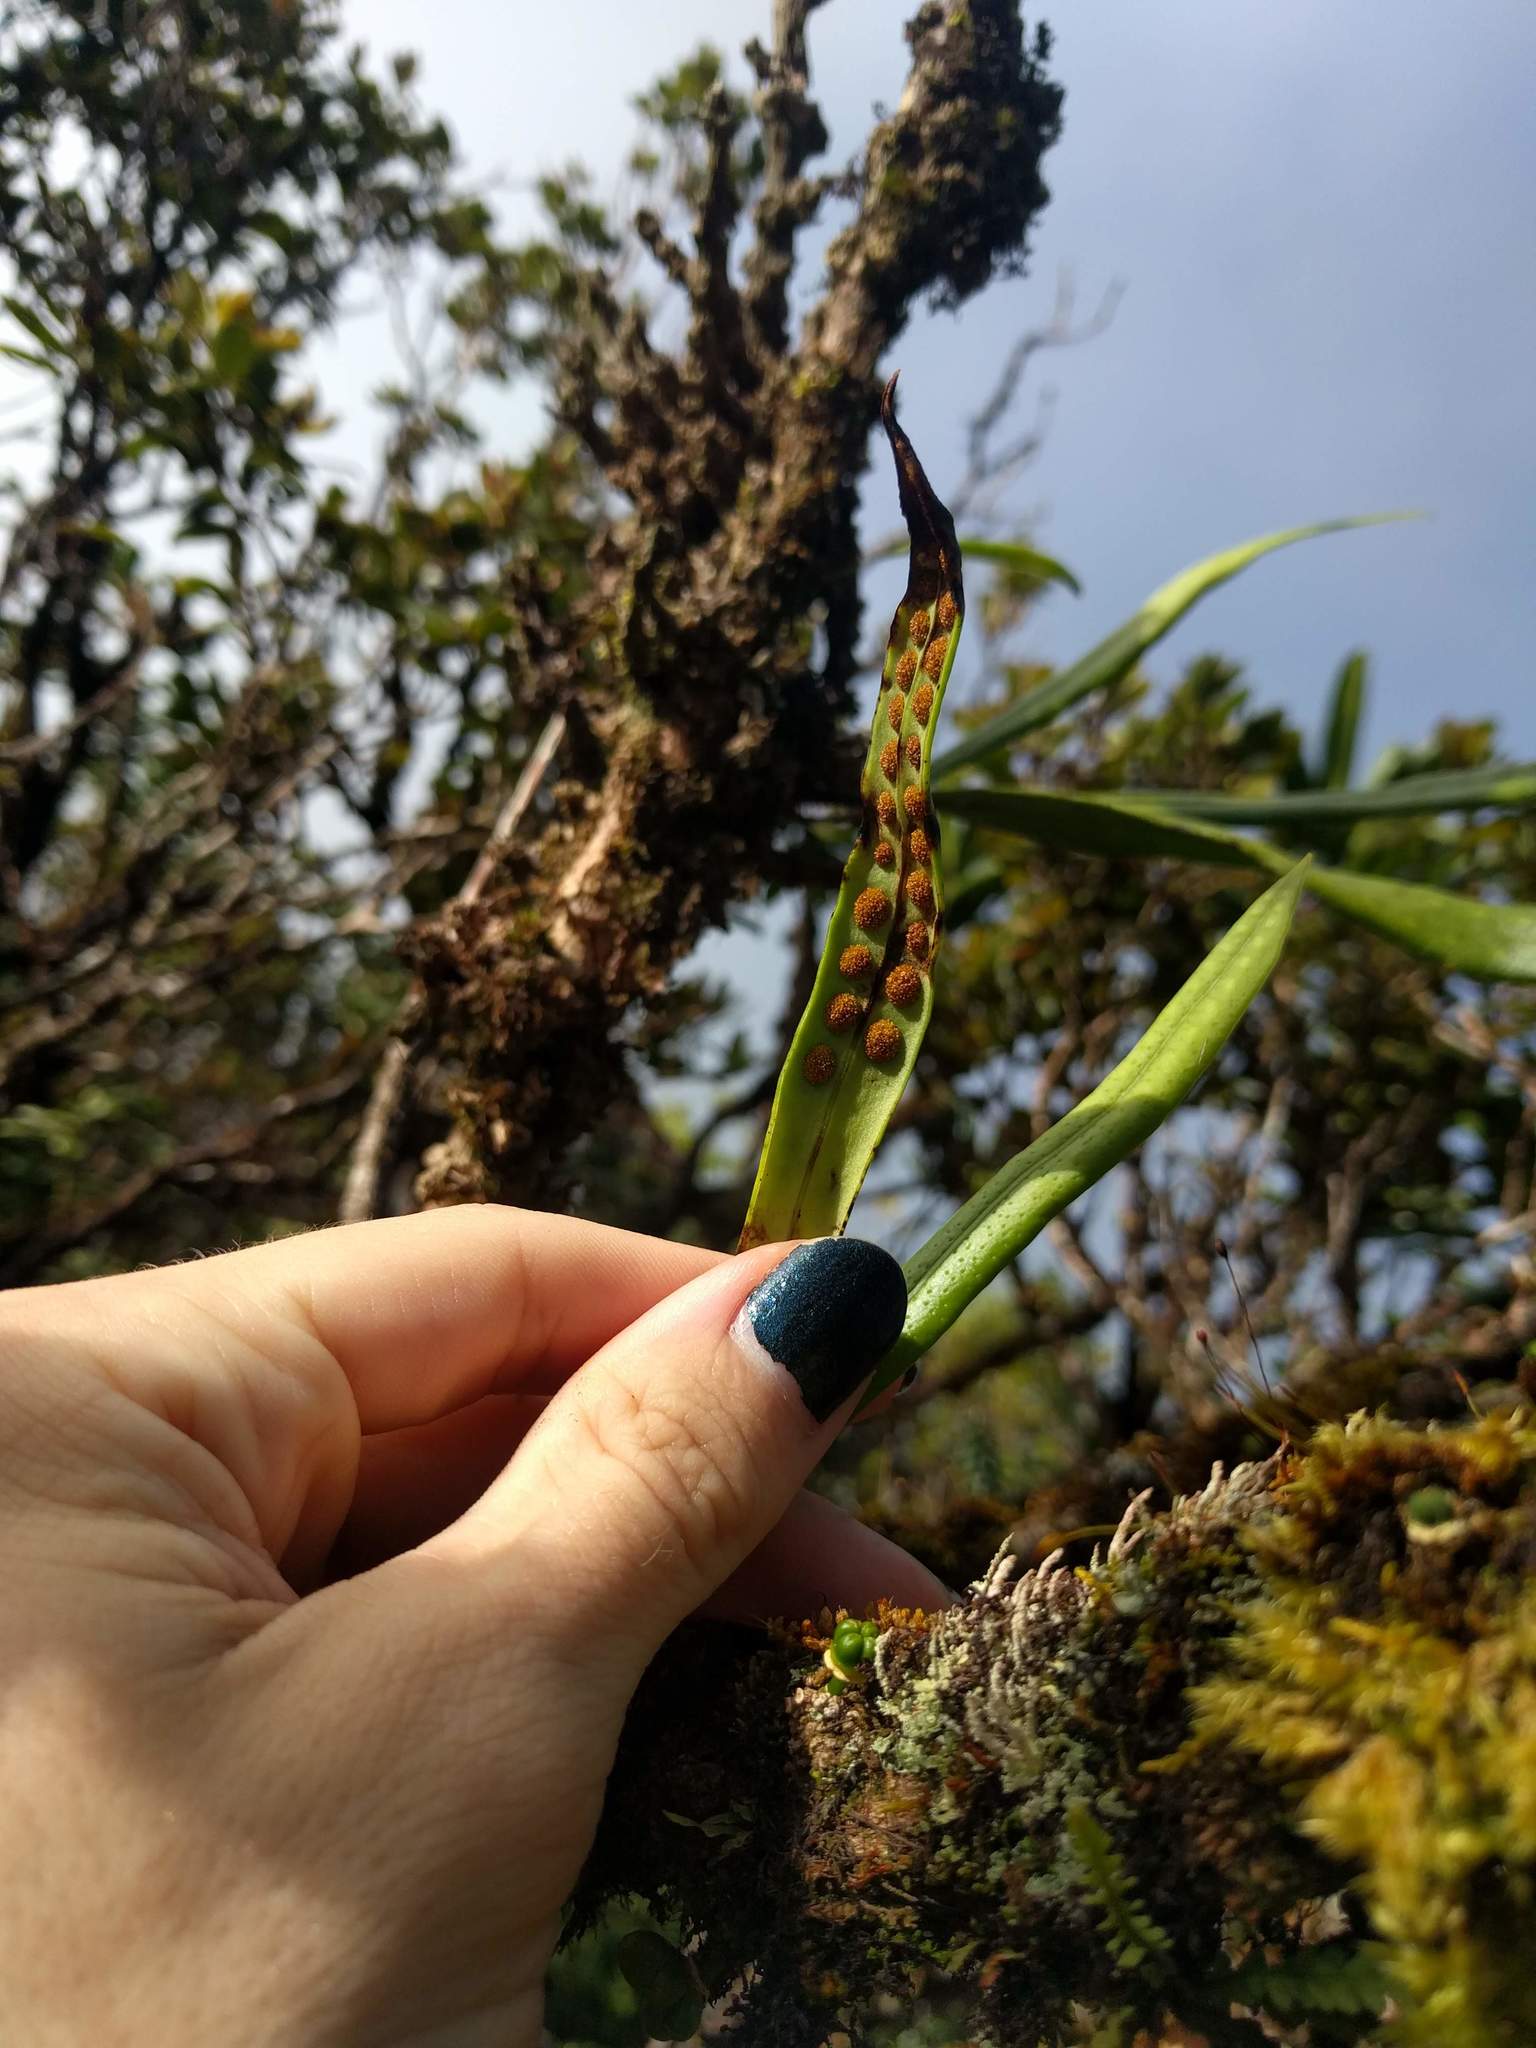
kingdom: Plantae
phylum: Tracheophyta
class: Polypodiopsida
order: Polypodiales
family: Polypodiaceae
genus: Lepisorus
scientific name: Lepisorus thunbergianus
